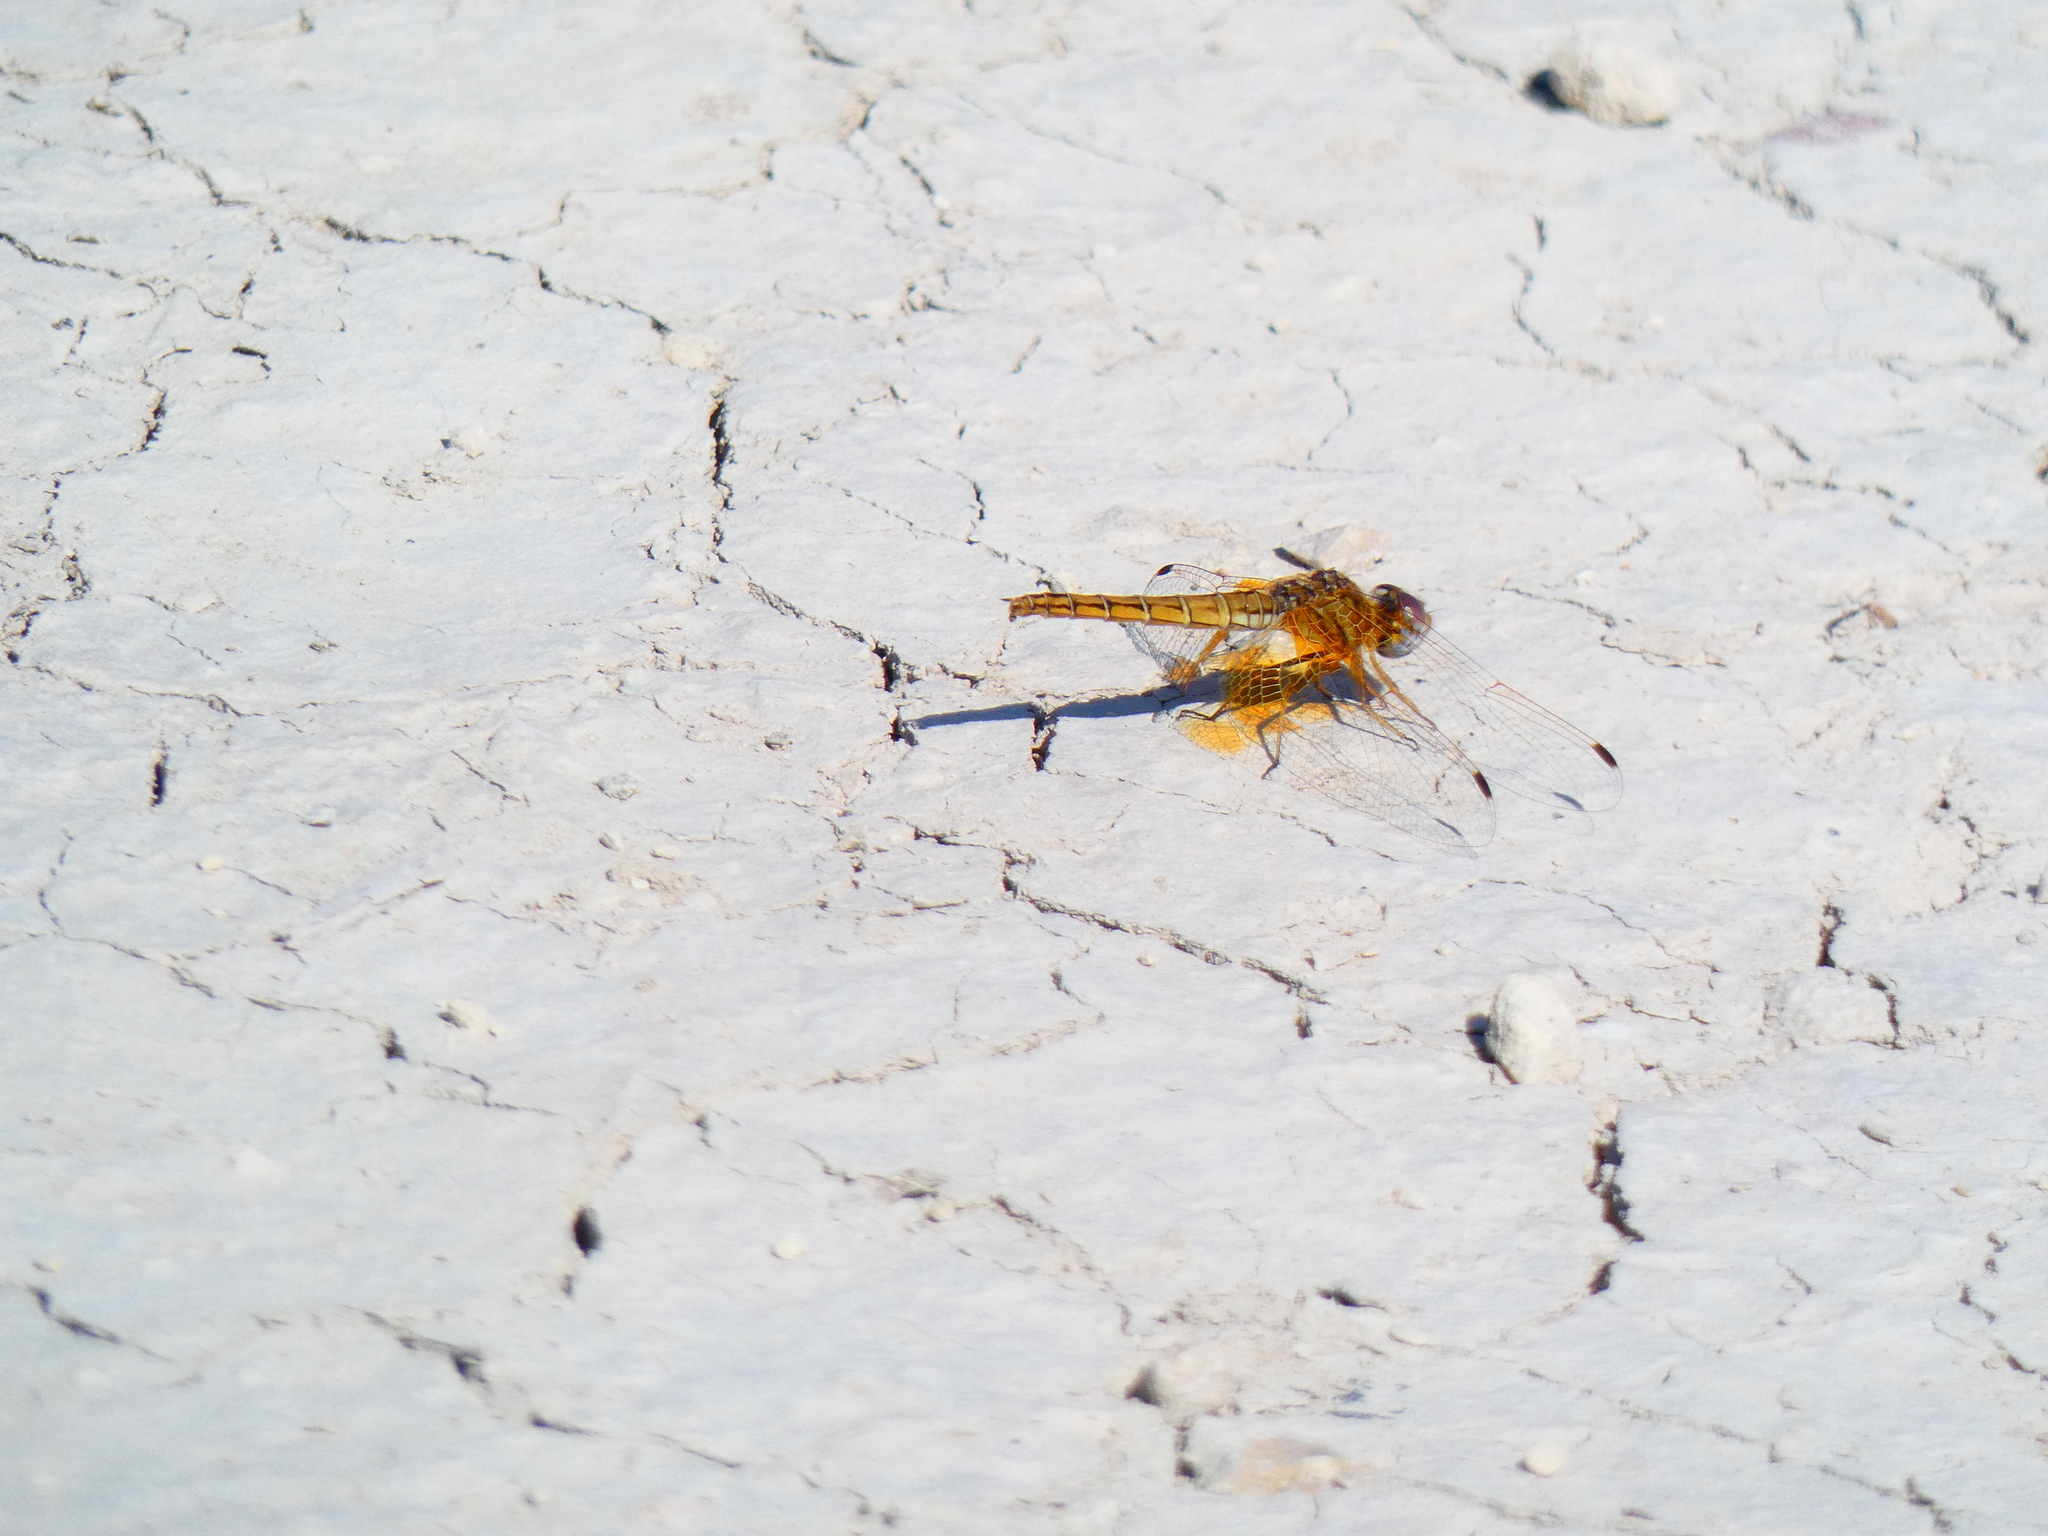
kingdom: Animalia
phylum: Arthropoda
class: Insecta
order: Odonata
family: Libellulidae
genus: Trithemis
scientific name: Trithemis kirbyi
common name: Kirby's dropwing
